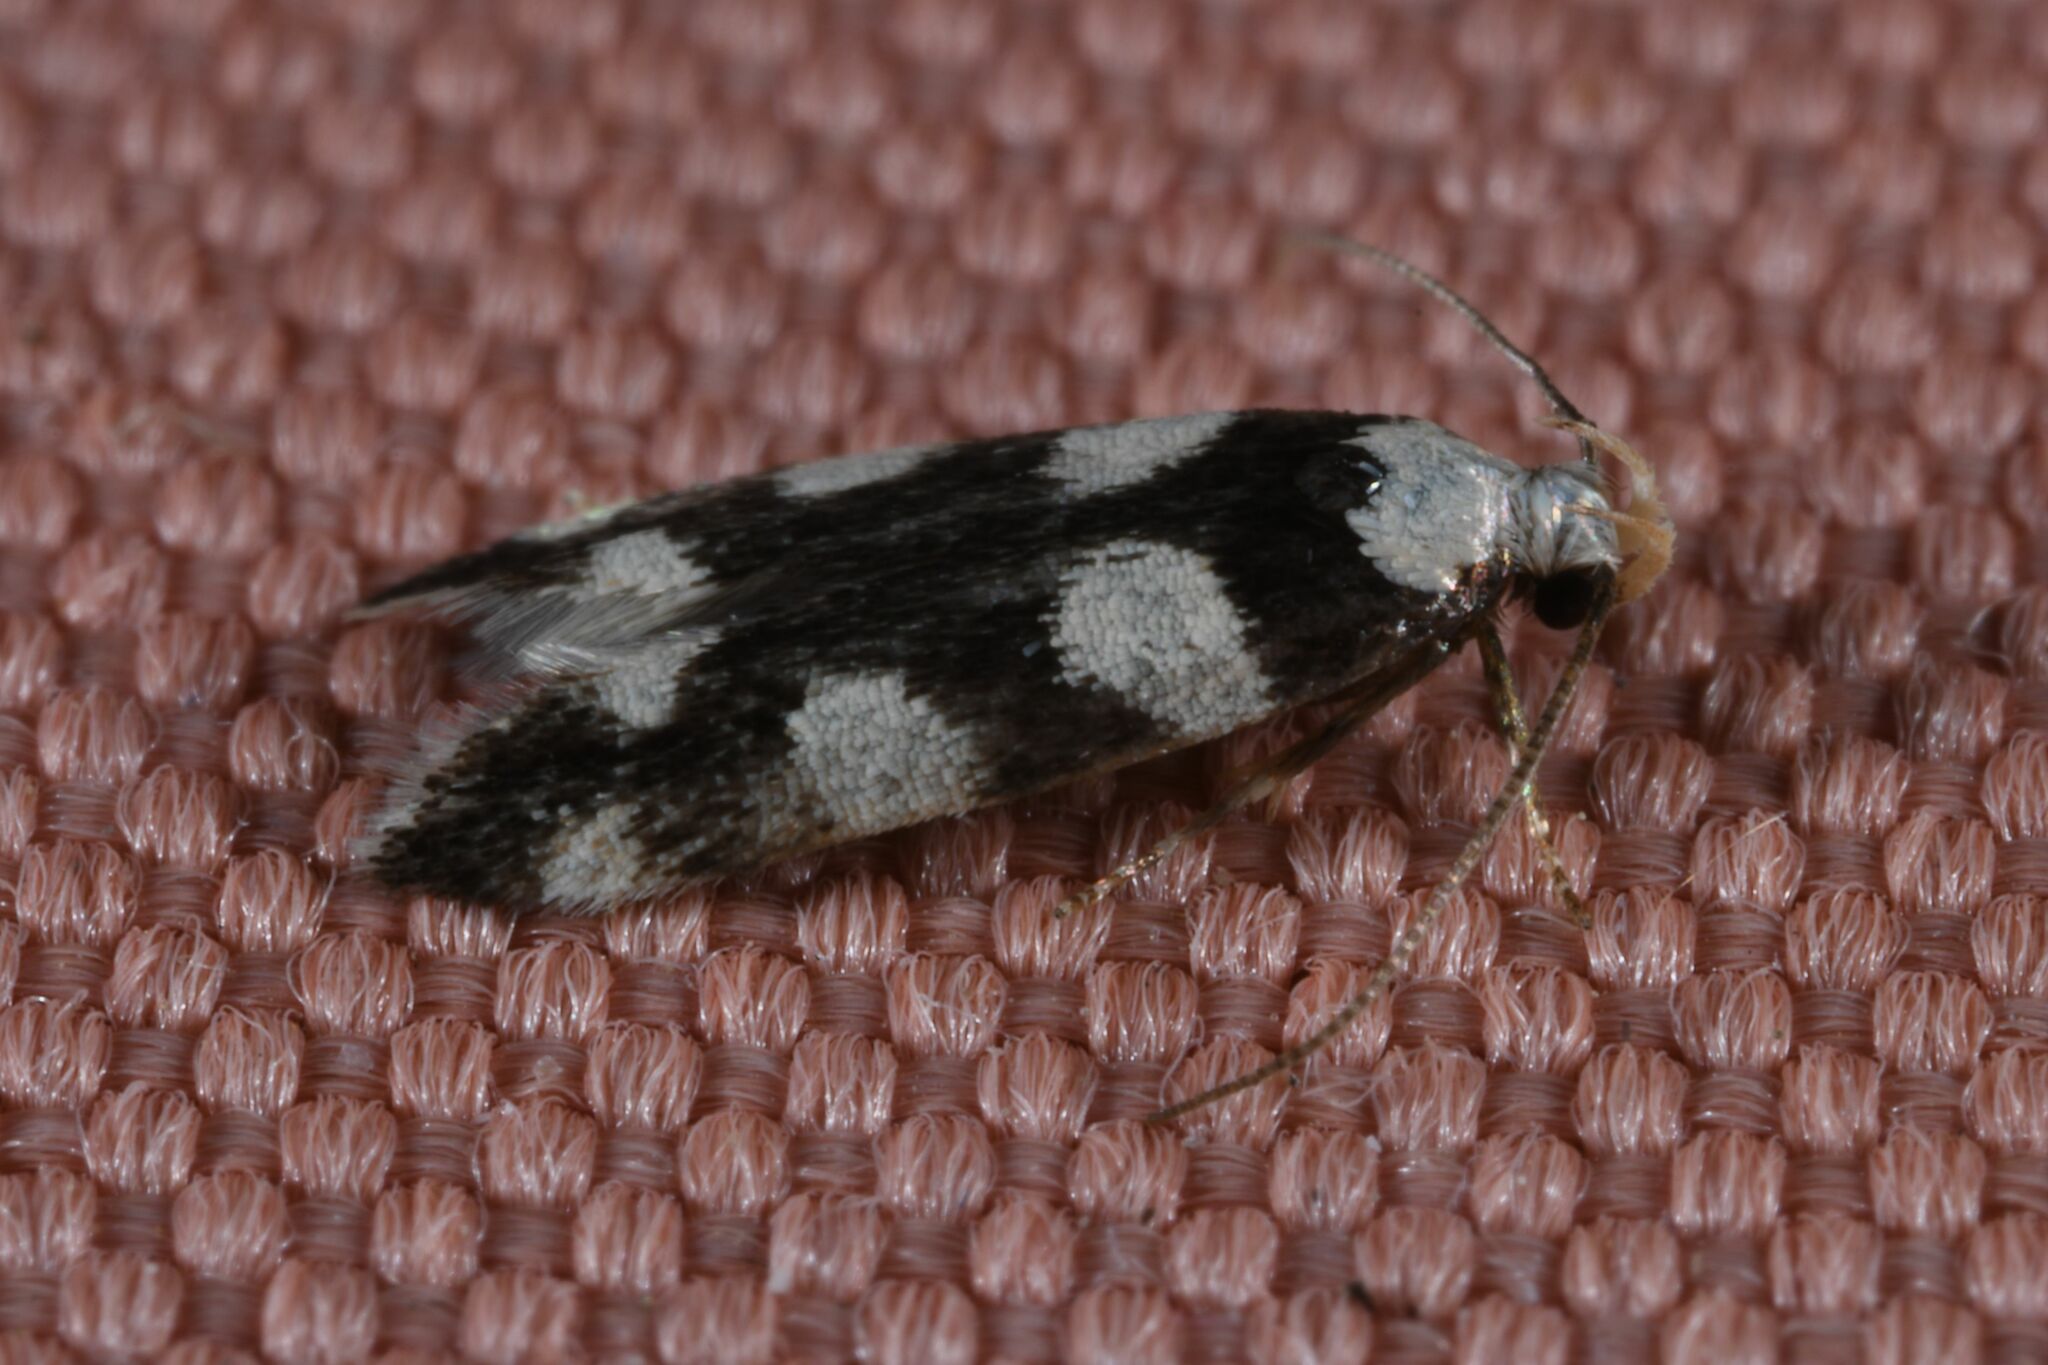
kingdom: Animalia
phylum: Arthropoda
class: Insecta
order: Lepidoptera
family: Gelechiidae
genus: Pseudotelphusa
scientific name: Pseudotelphusa tessella
